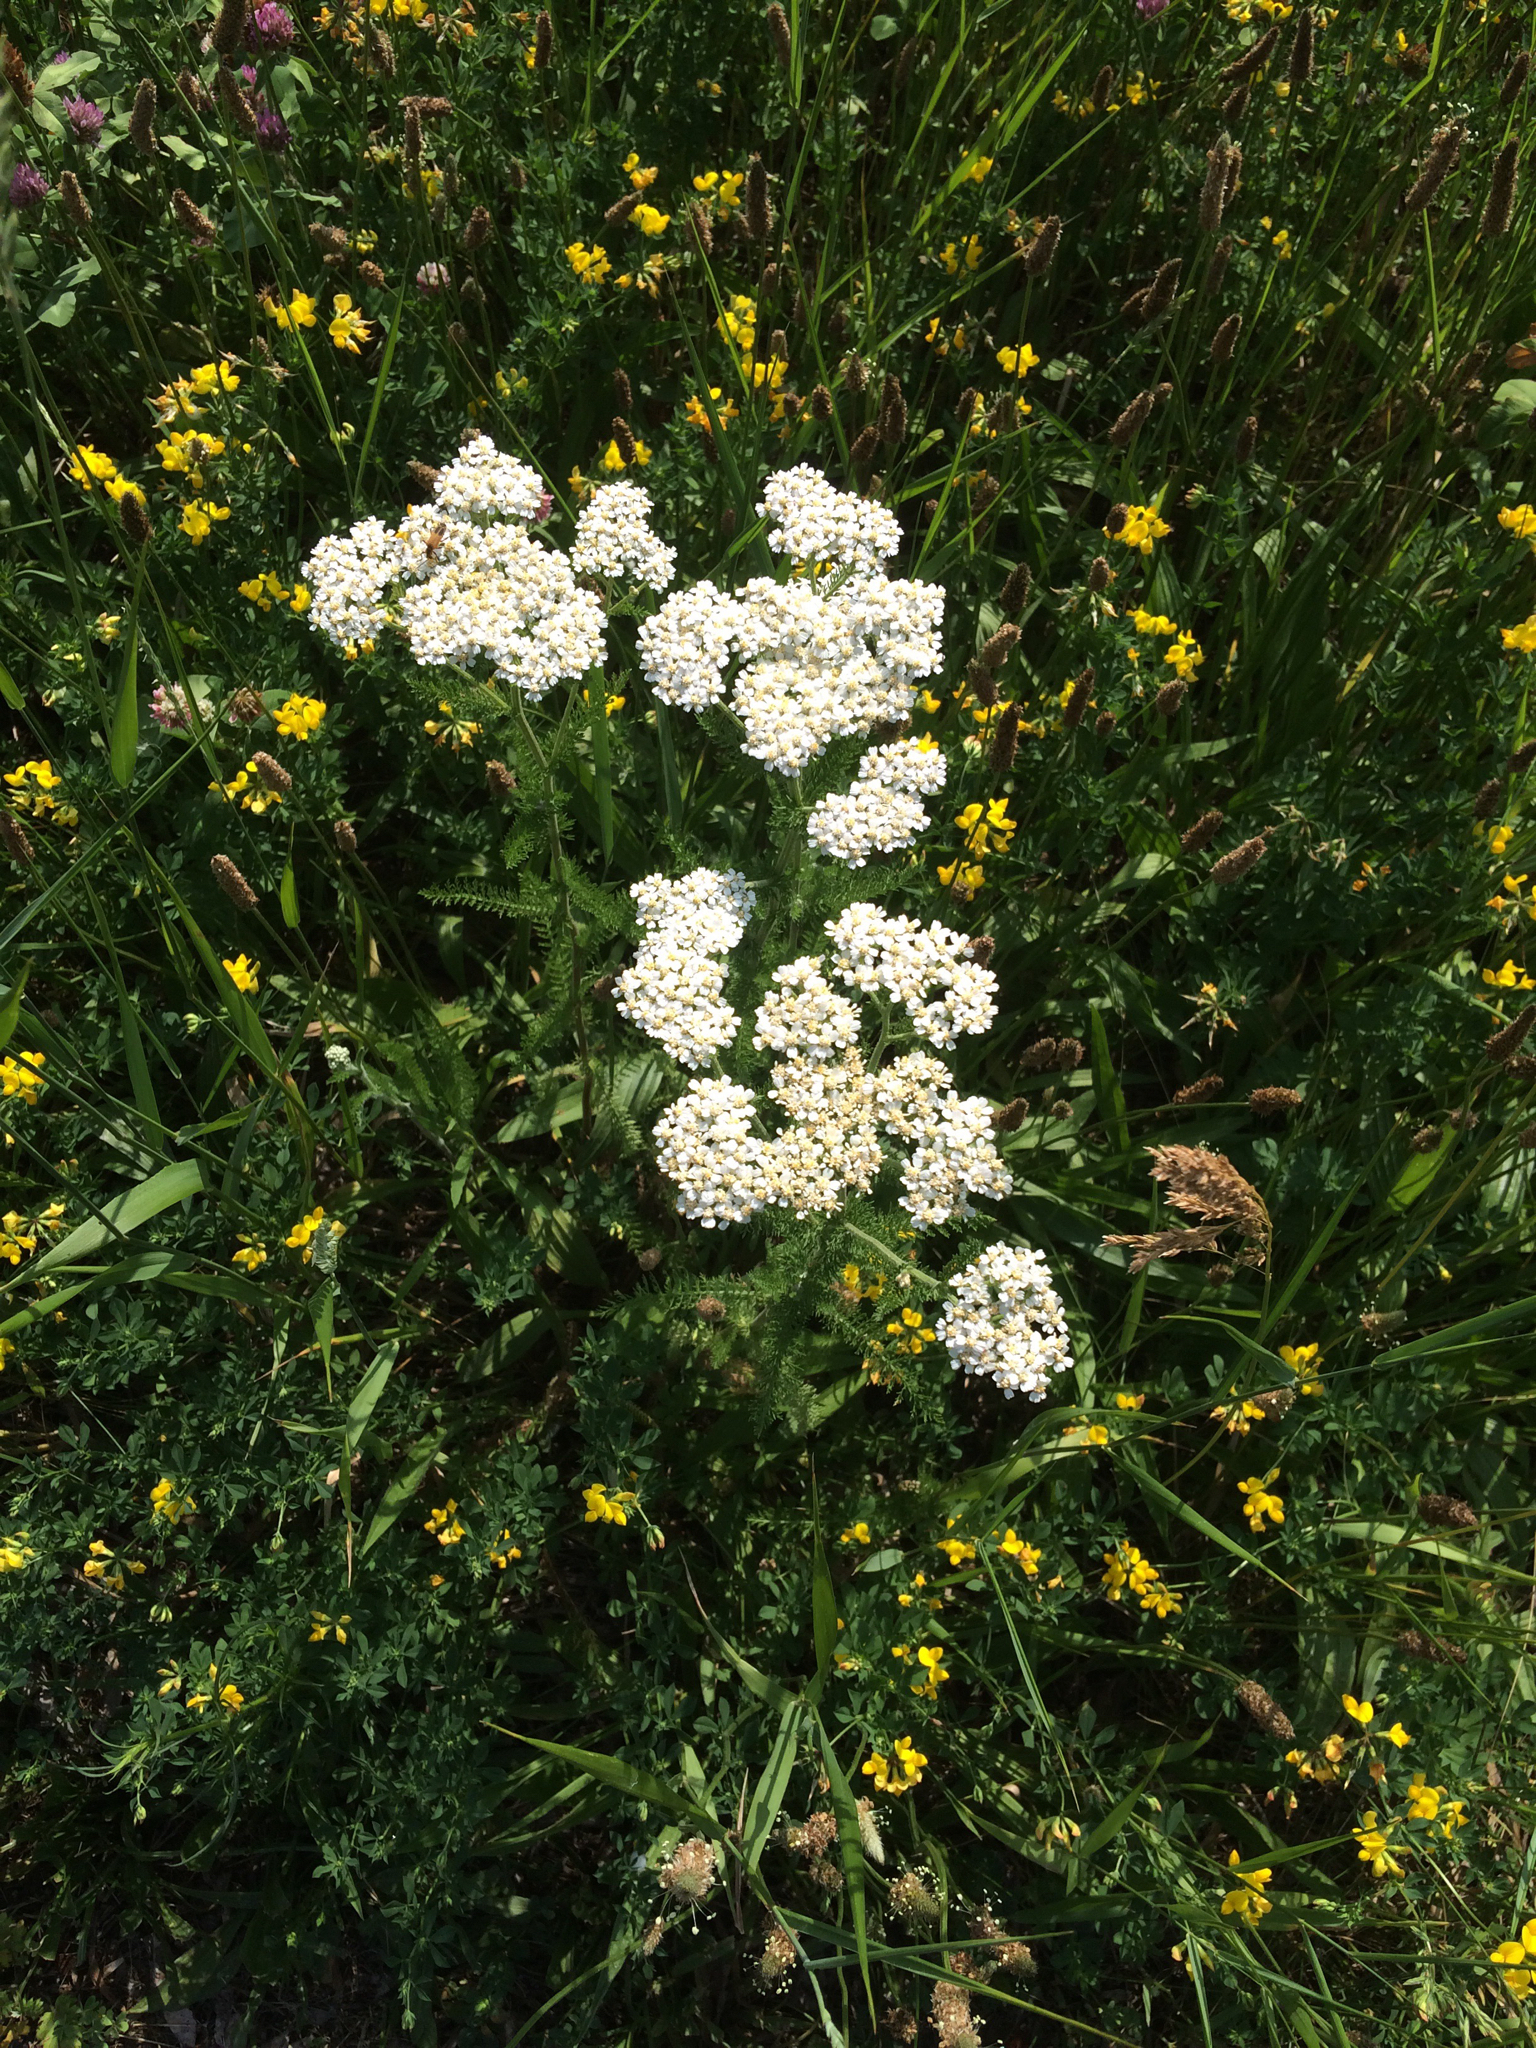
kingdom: Plantae
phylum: Tracheophyta
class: Magnoliopsida
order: Asterales
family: Asteraceae
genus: Achillea
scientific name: Achillea millefolium
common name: Yarrow
